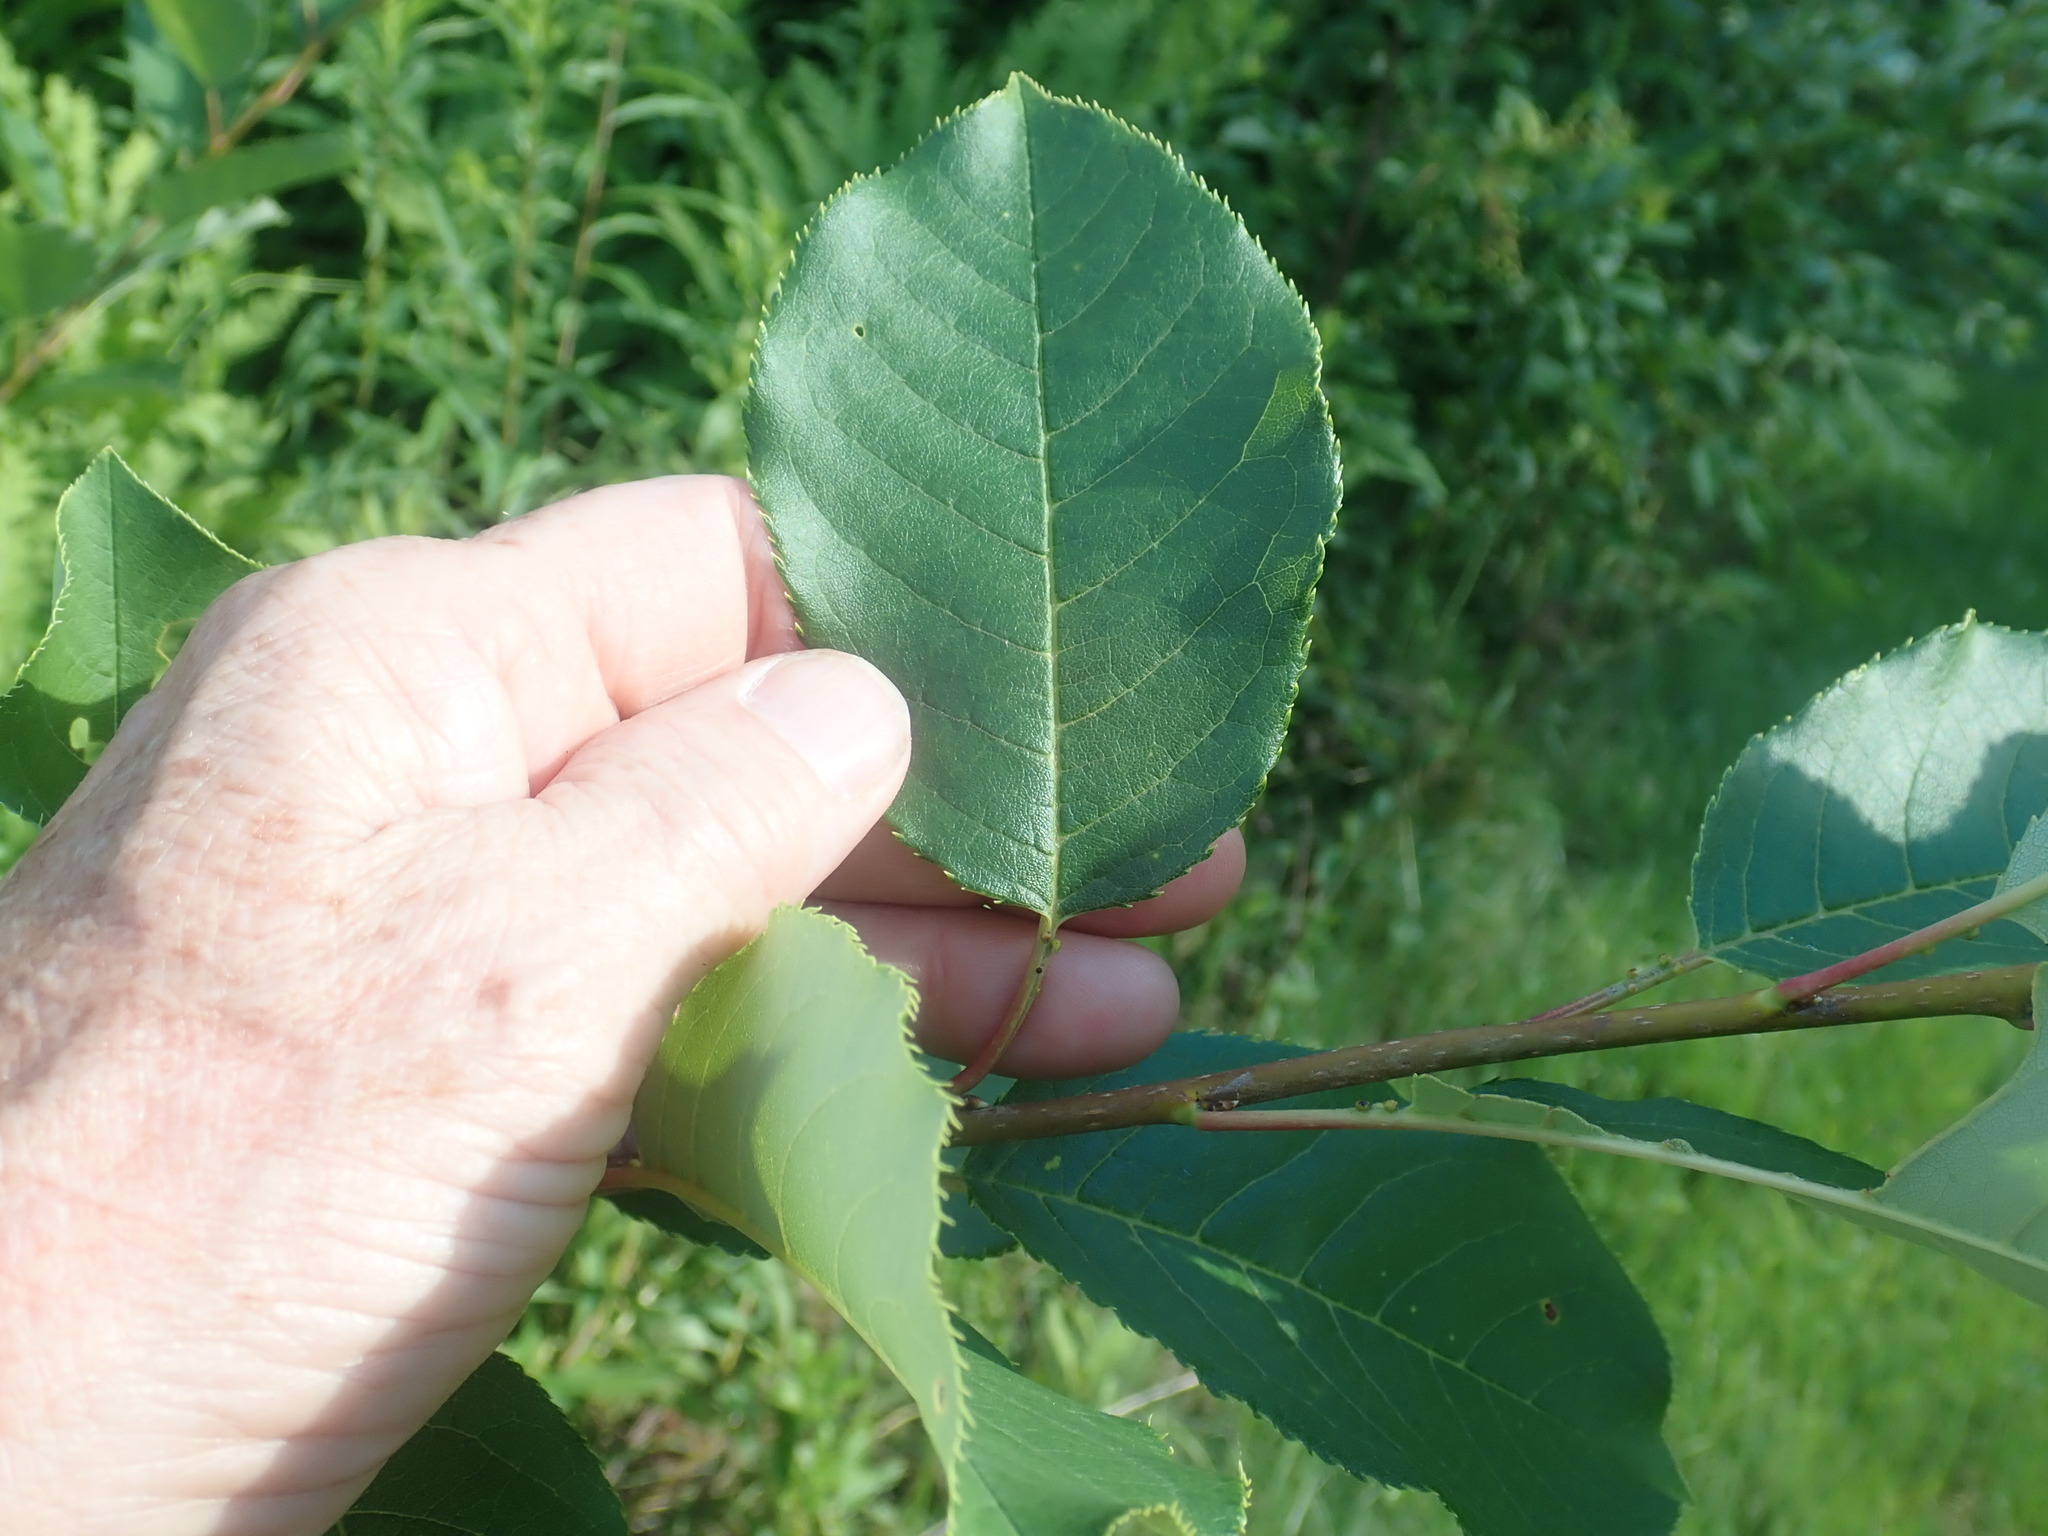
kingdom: Plantae
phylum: Tracheophyta
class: Magnoliopsida
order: Rosales
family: Rosaceae
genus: Prunus
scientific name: Prunus virginiana
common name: Chokecherry
